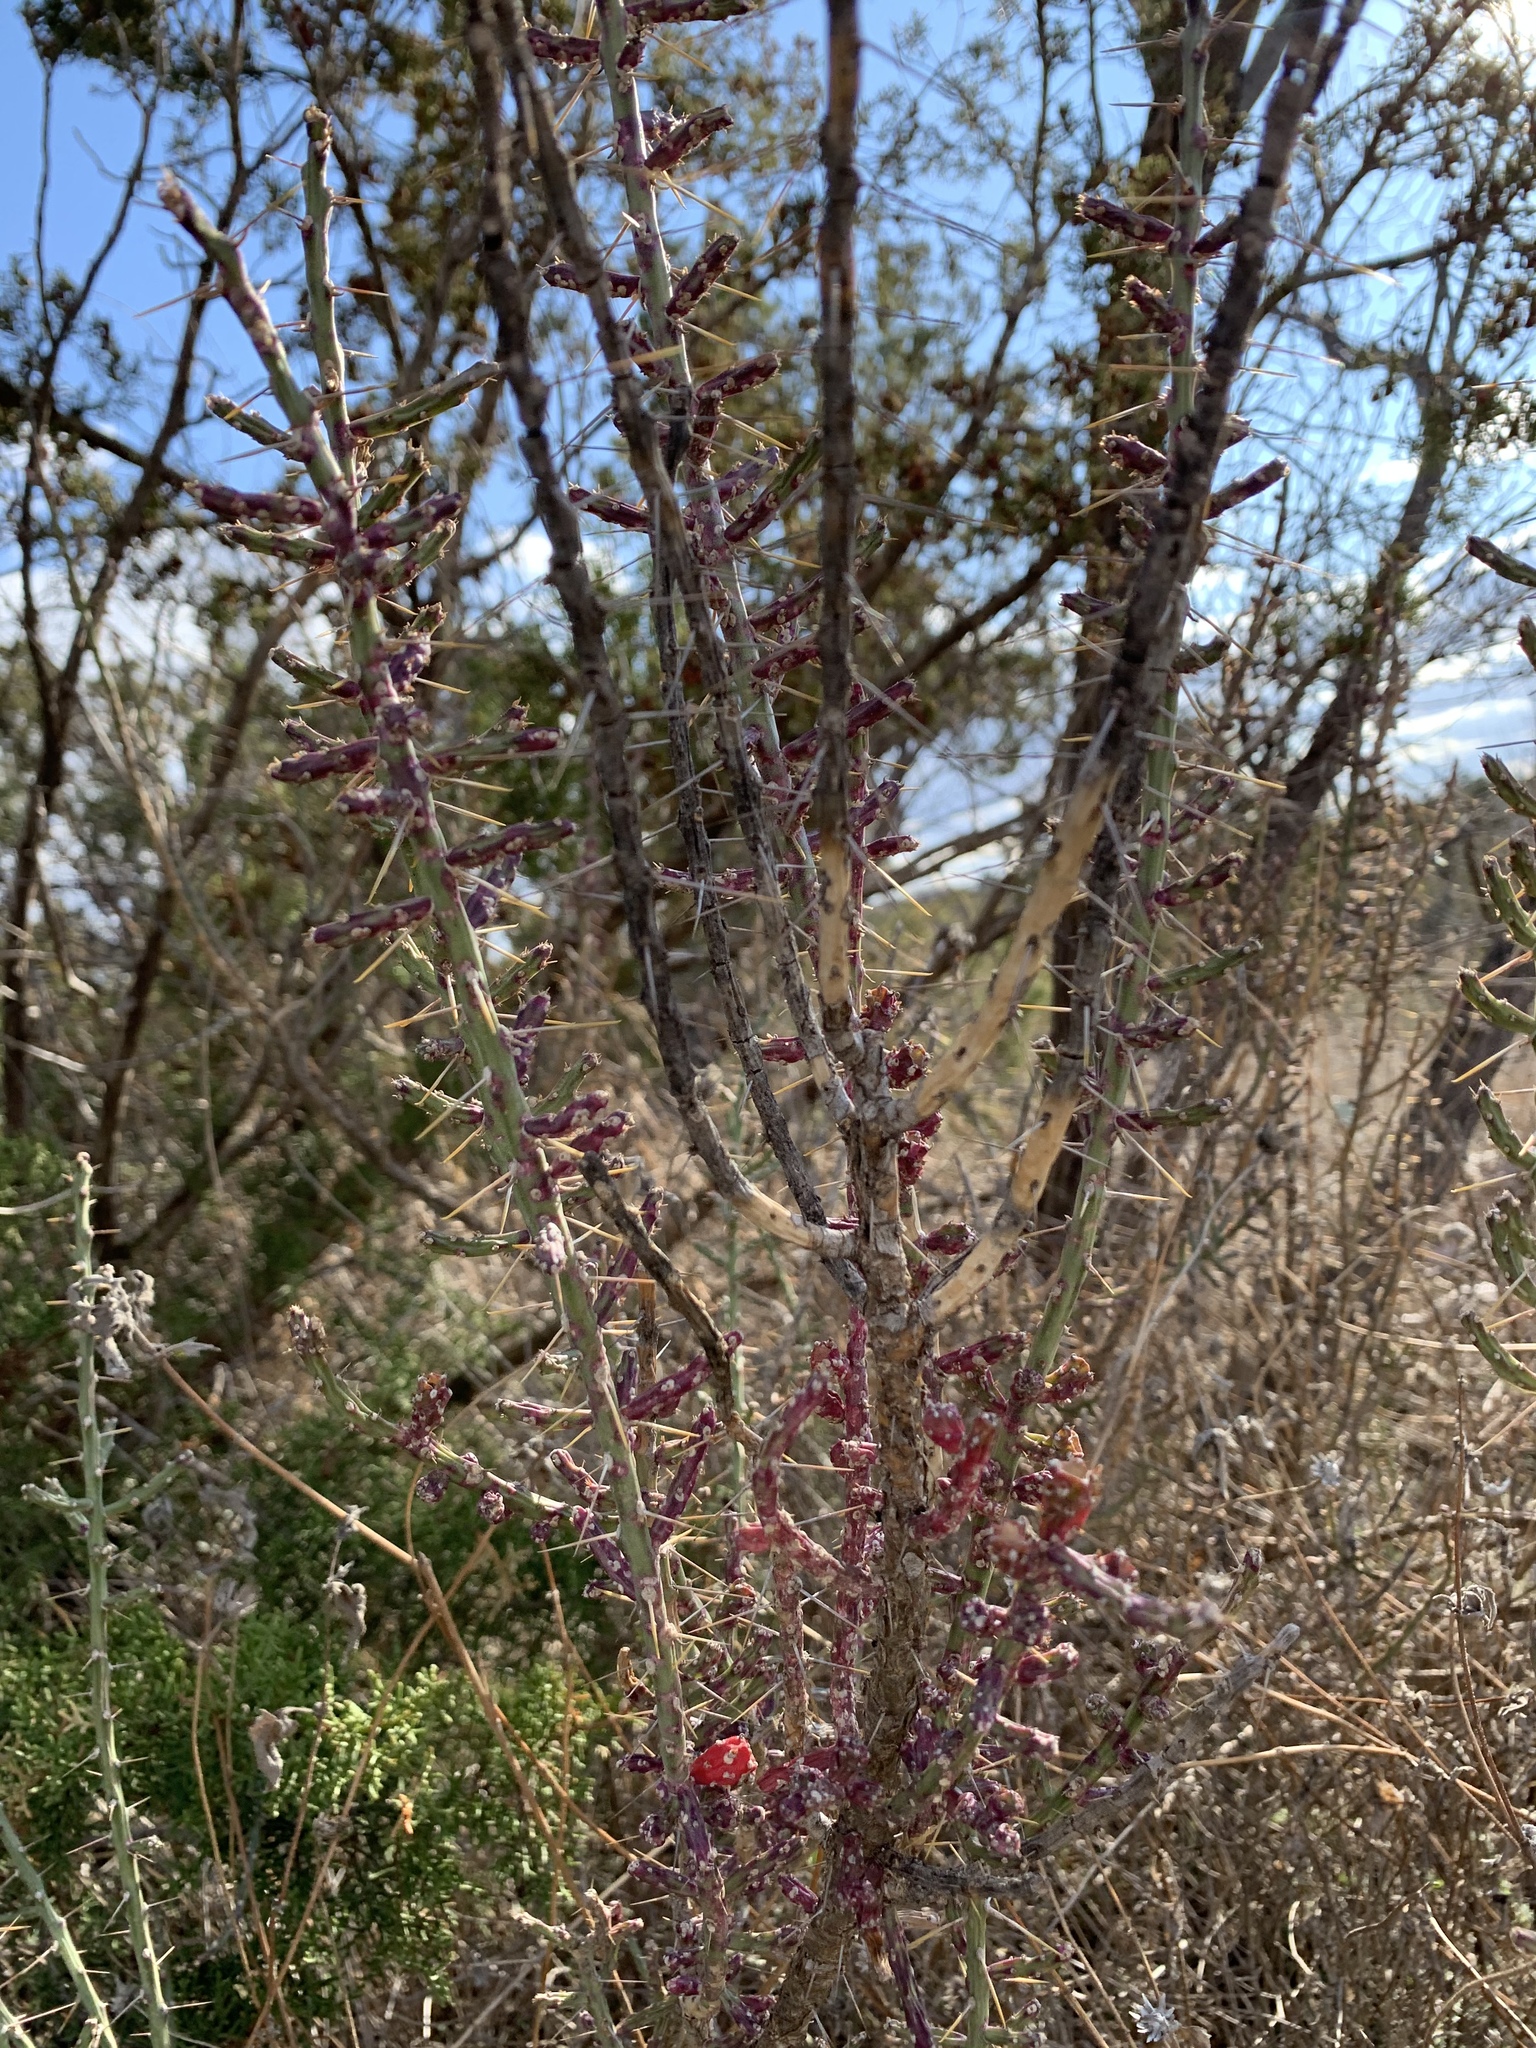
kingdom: Plantae
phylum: Tracheophyta
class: Magnoliopsida
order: Caryophyllales
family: Cactaceae
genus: Cylindropuntia
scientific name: Cylindropuntia leptocaulis
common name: Christmas cactus
